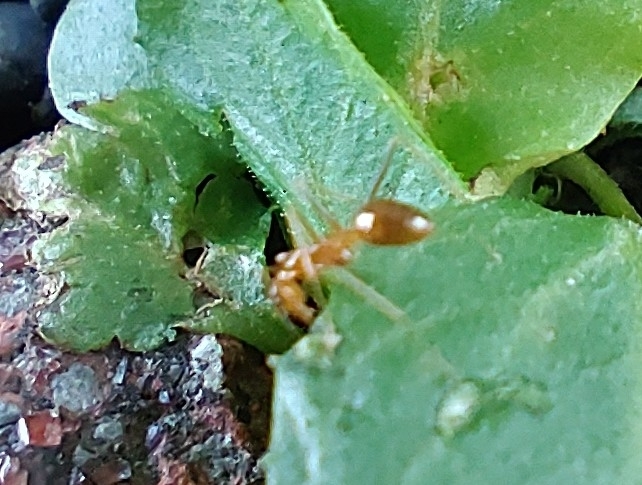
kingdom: Animalia
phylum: Arthropoda
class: Insecta
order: Hymenoptera
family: Formicidae
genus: Anoplolepis
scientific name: Anoplolepis gracilipes
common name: Ant
